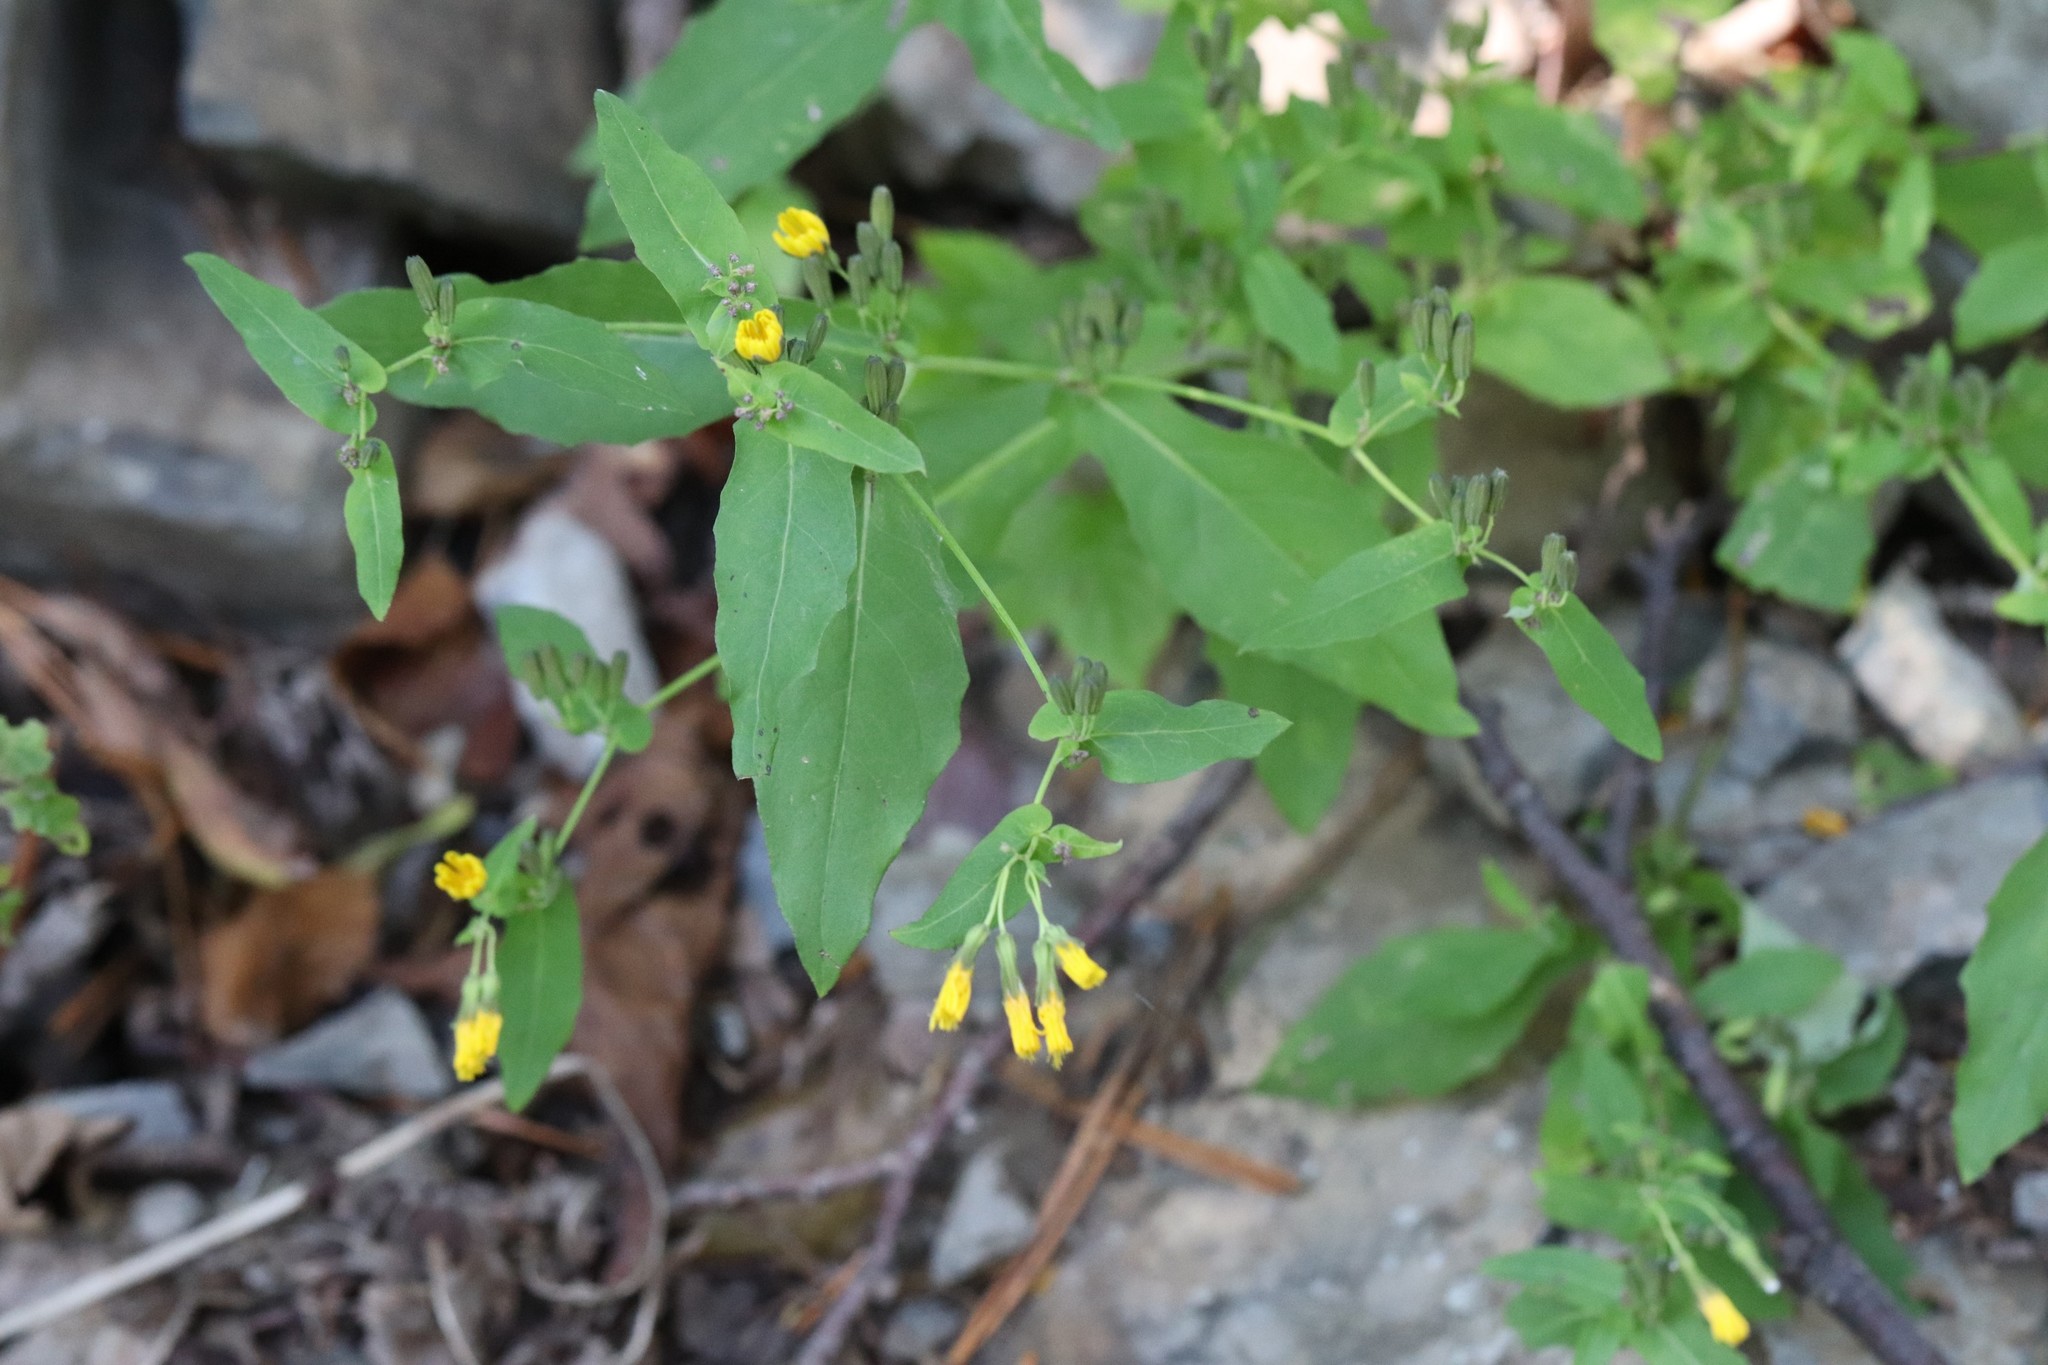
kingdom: Plantae
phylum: Tracheophyta
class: Magnoliopsida
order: Asterales
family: Asteraceae
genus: Crepidiastrum
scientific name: Crepidiastrum denticulatum
